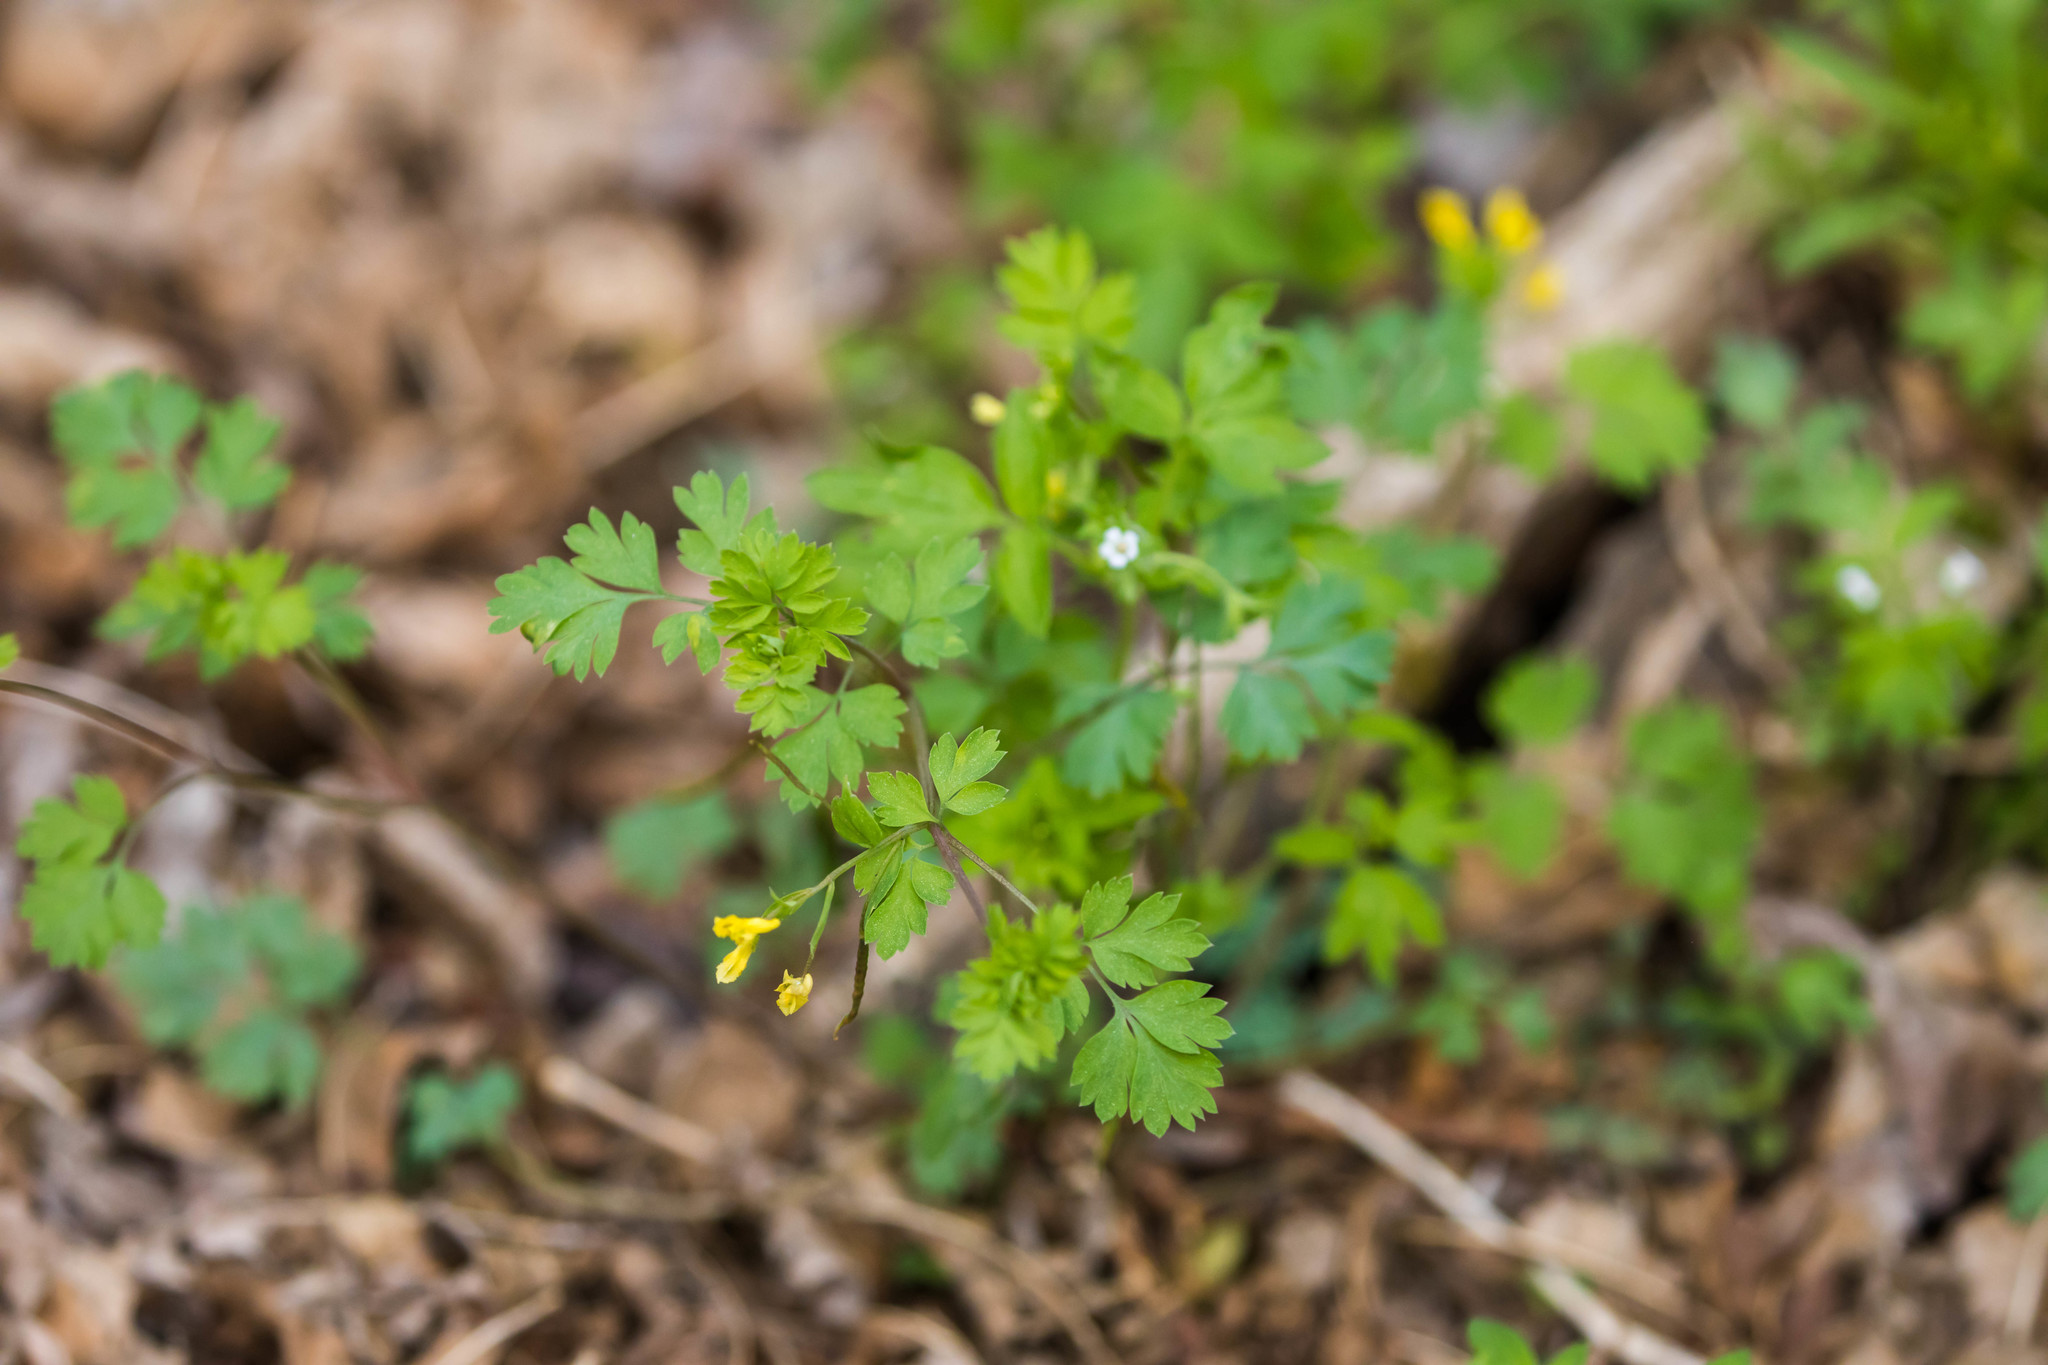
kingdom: Plantae
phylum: Tracheophyta
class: Magnoliopsida
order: Ranunculales
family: Papaveraceae
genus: Corydalis
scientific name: Corydalis flavula
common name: Yellow corydalis
